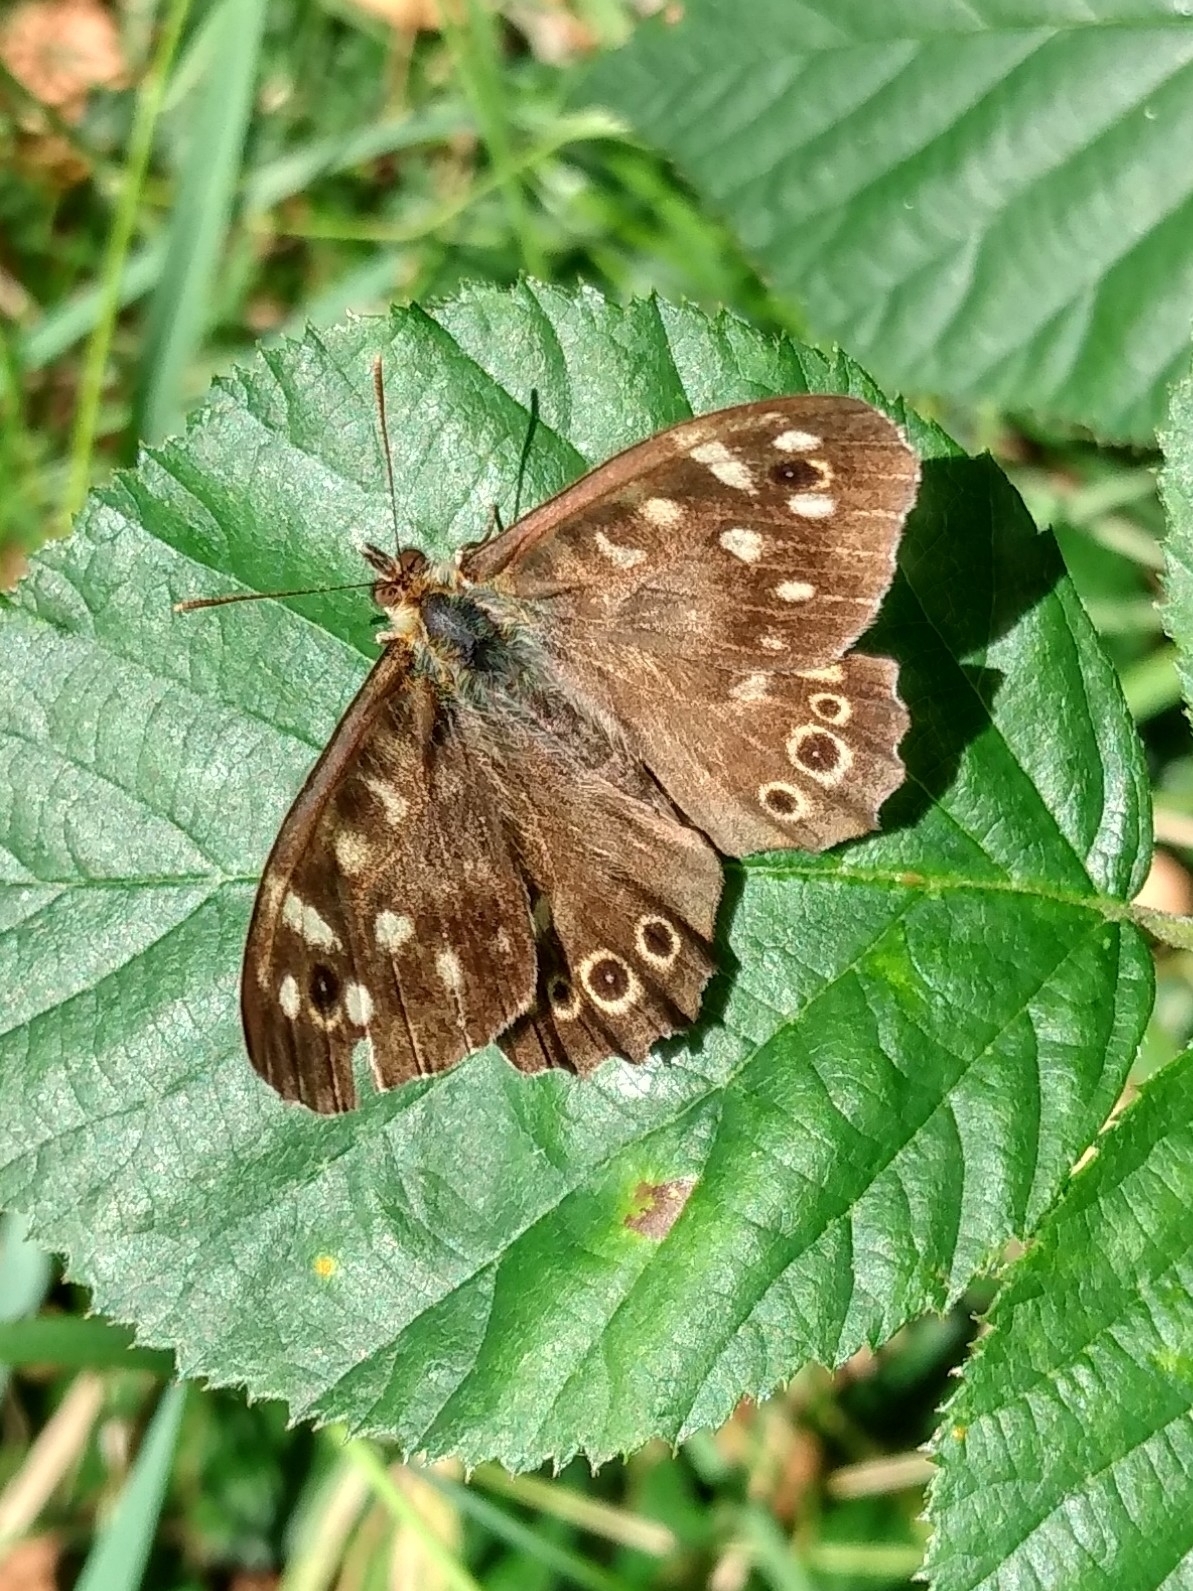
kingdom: Animalia
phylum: Arthropoda
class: Insecta
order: Lepidoptera
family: Nymphalidae
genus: Pararge
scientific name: Pararge aegeria
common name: Speckled wood
